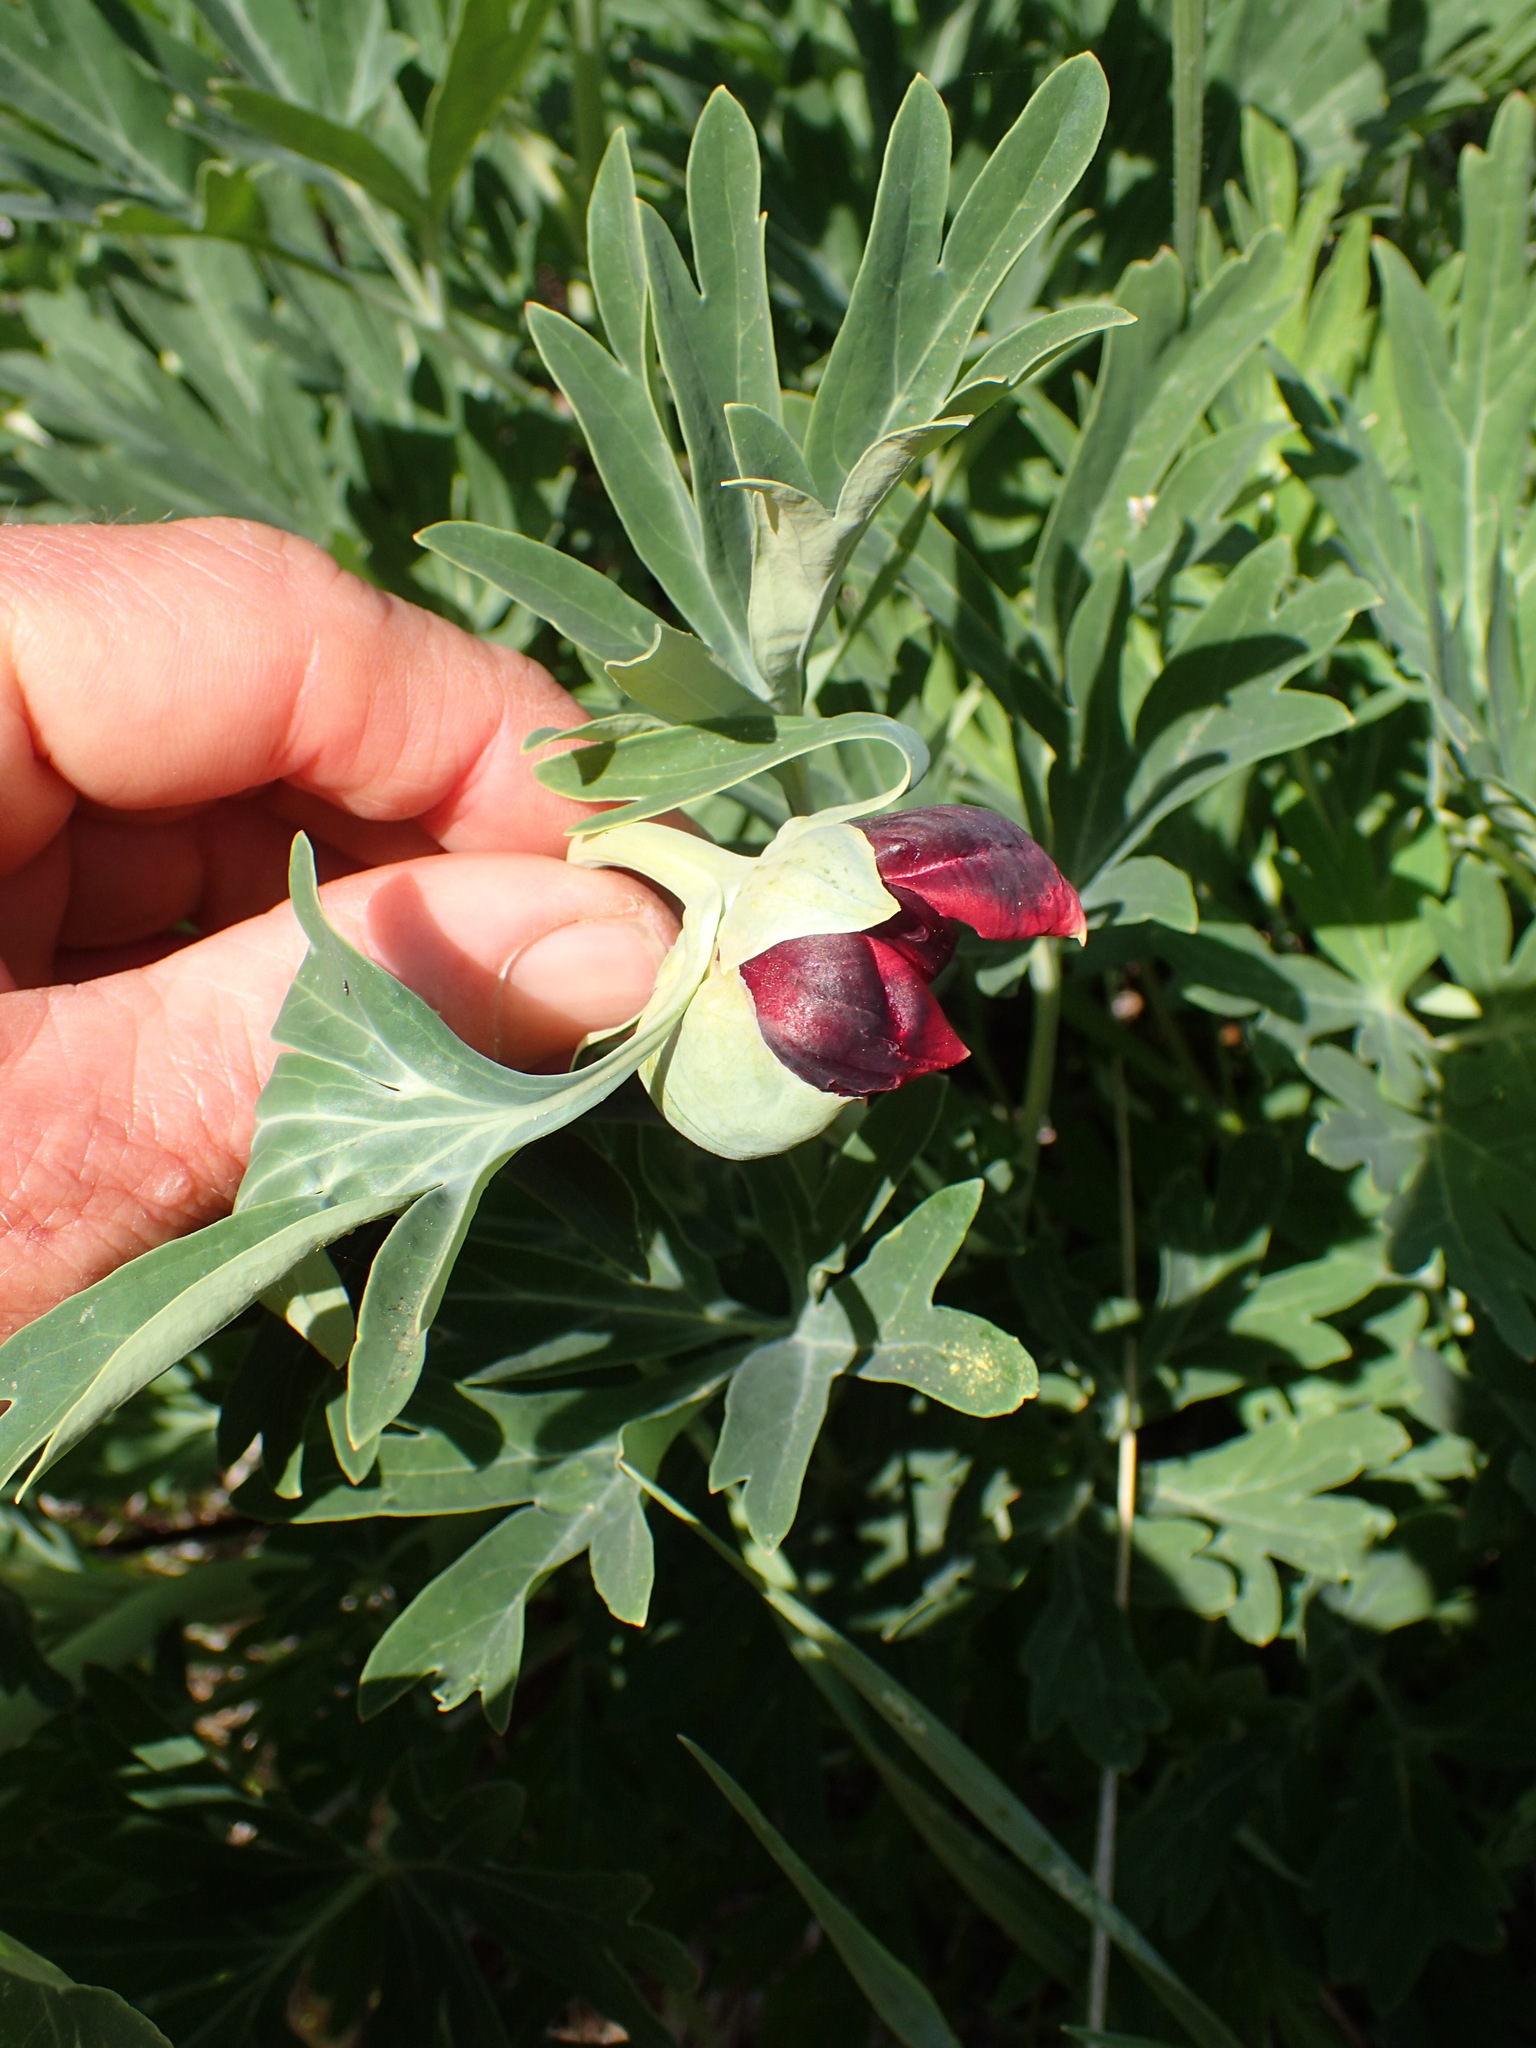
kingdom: Plantae
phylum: Tracheophyta
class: Magnoliopsida
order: Saxifragales
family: Paeoniaceae
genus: Paeonia
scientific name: Paeonia californica
